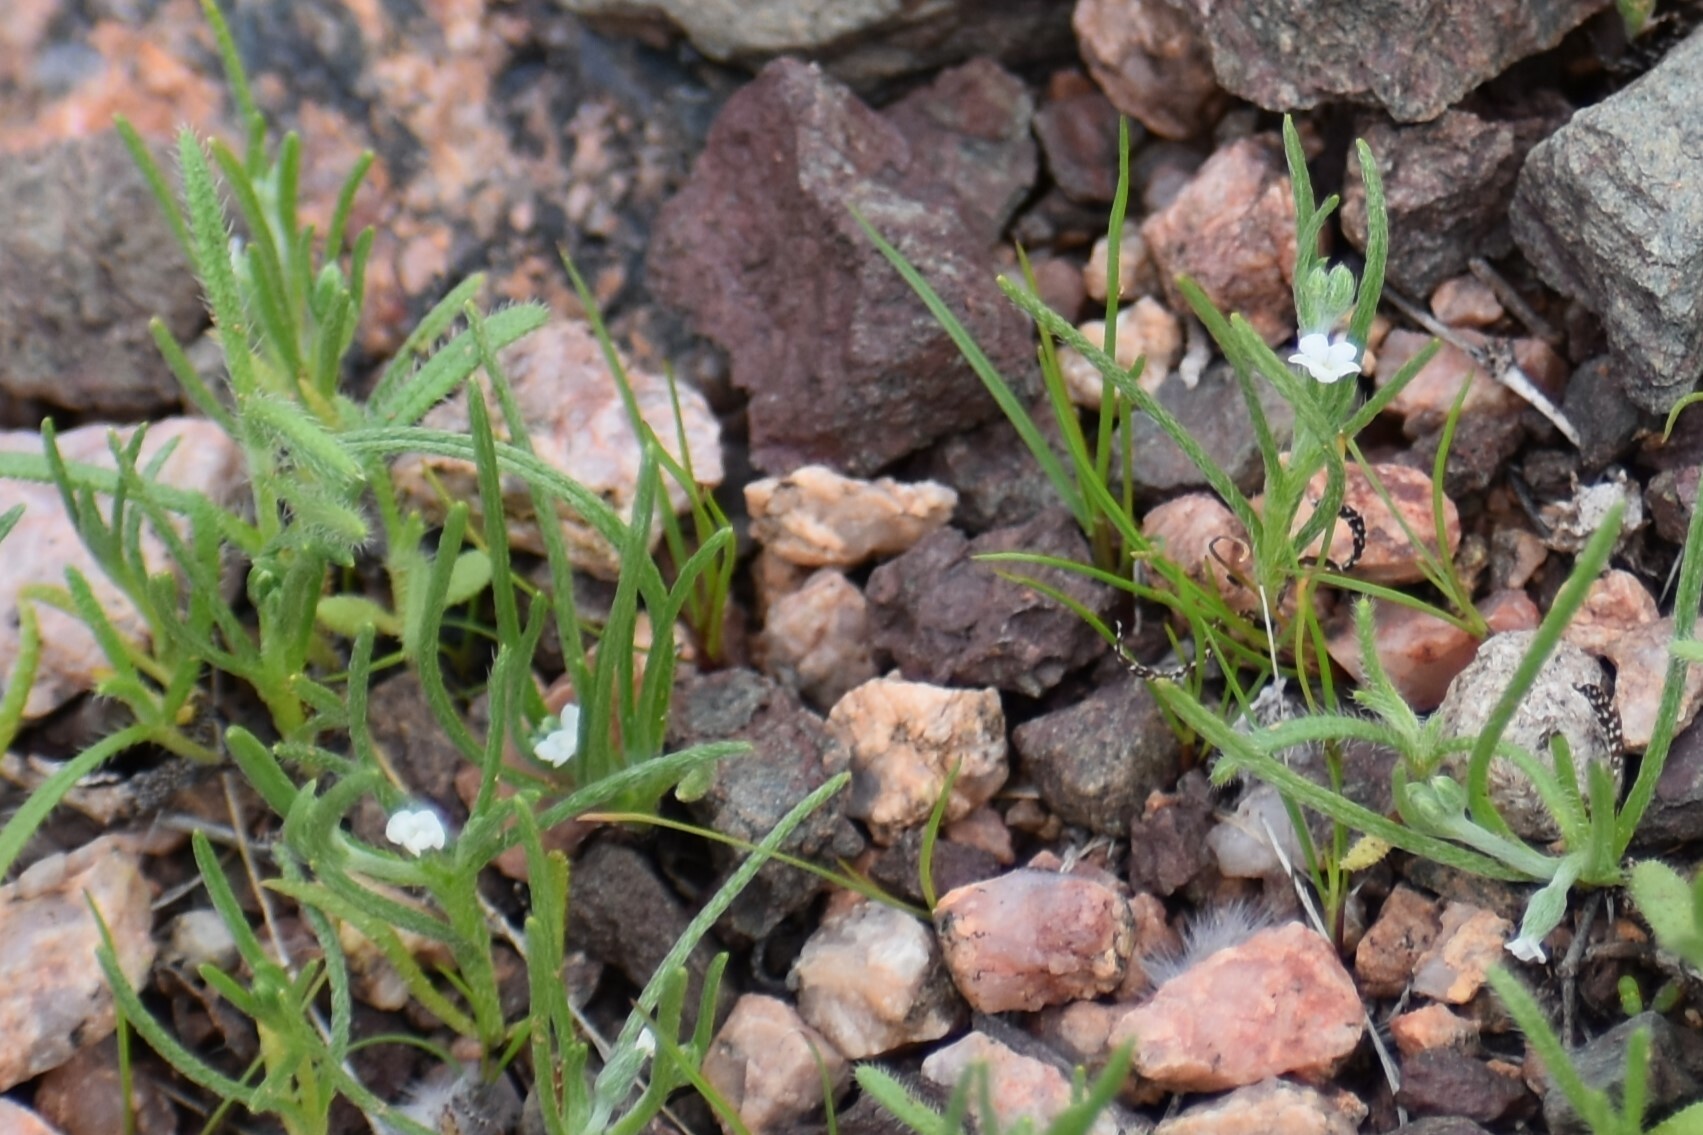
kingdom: Plantae
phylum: Tracheophyta
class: Magnoliopsida
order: Boraginales
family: Boraginaceae
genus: Pectocarya
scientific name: Pectocarya
